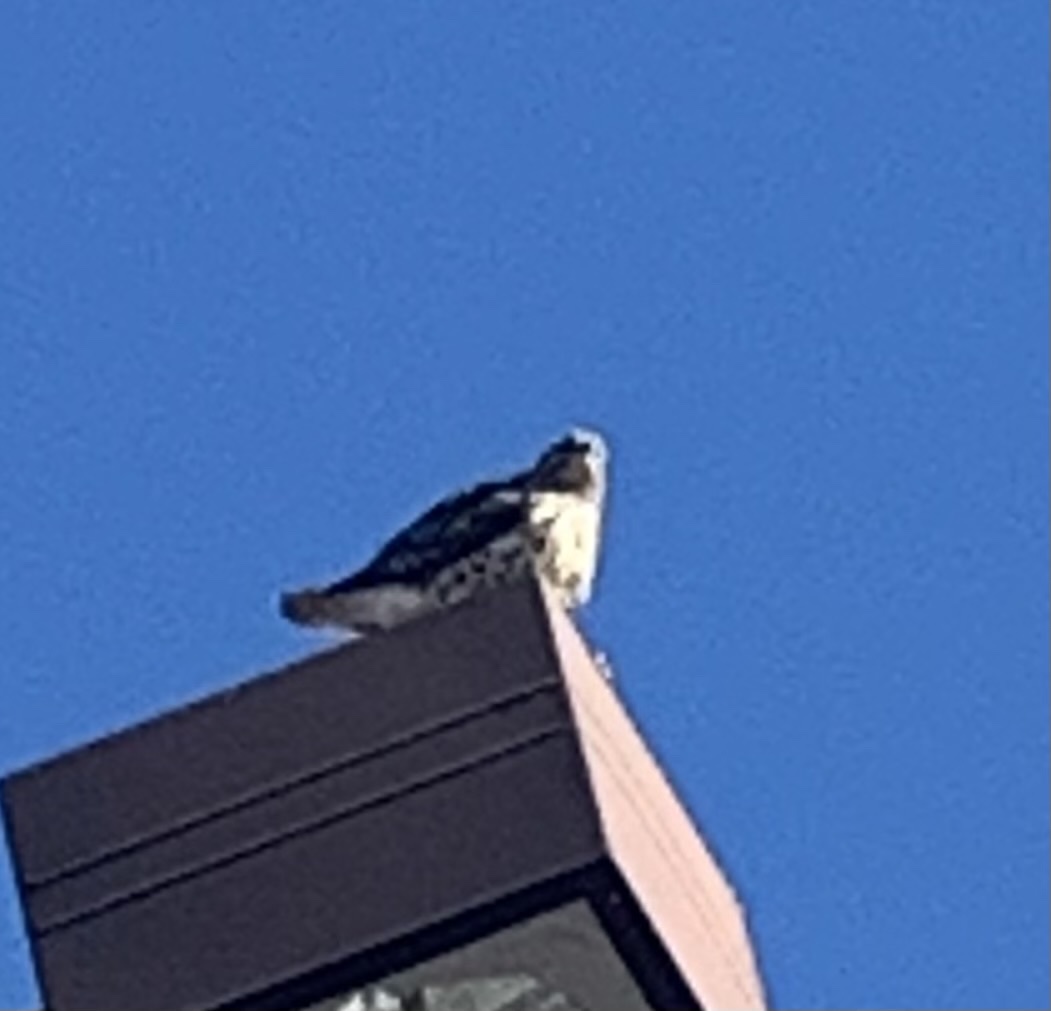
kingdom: Animalia
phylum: Chordata
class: Aves
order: Accipitriformes
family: Accipitridae
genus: Buteo
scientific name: Buteo lineatus
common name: Red-shouldered hawk
